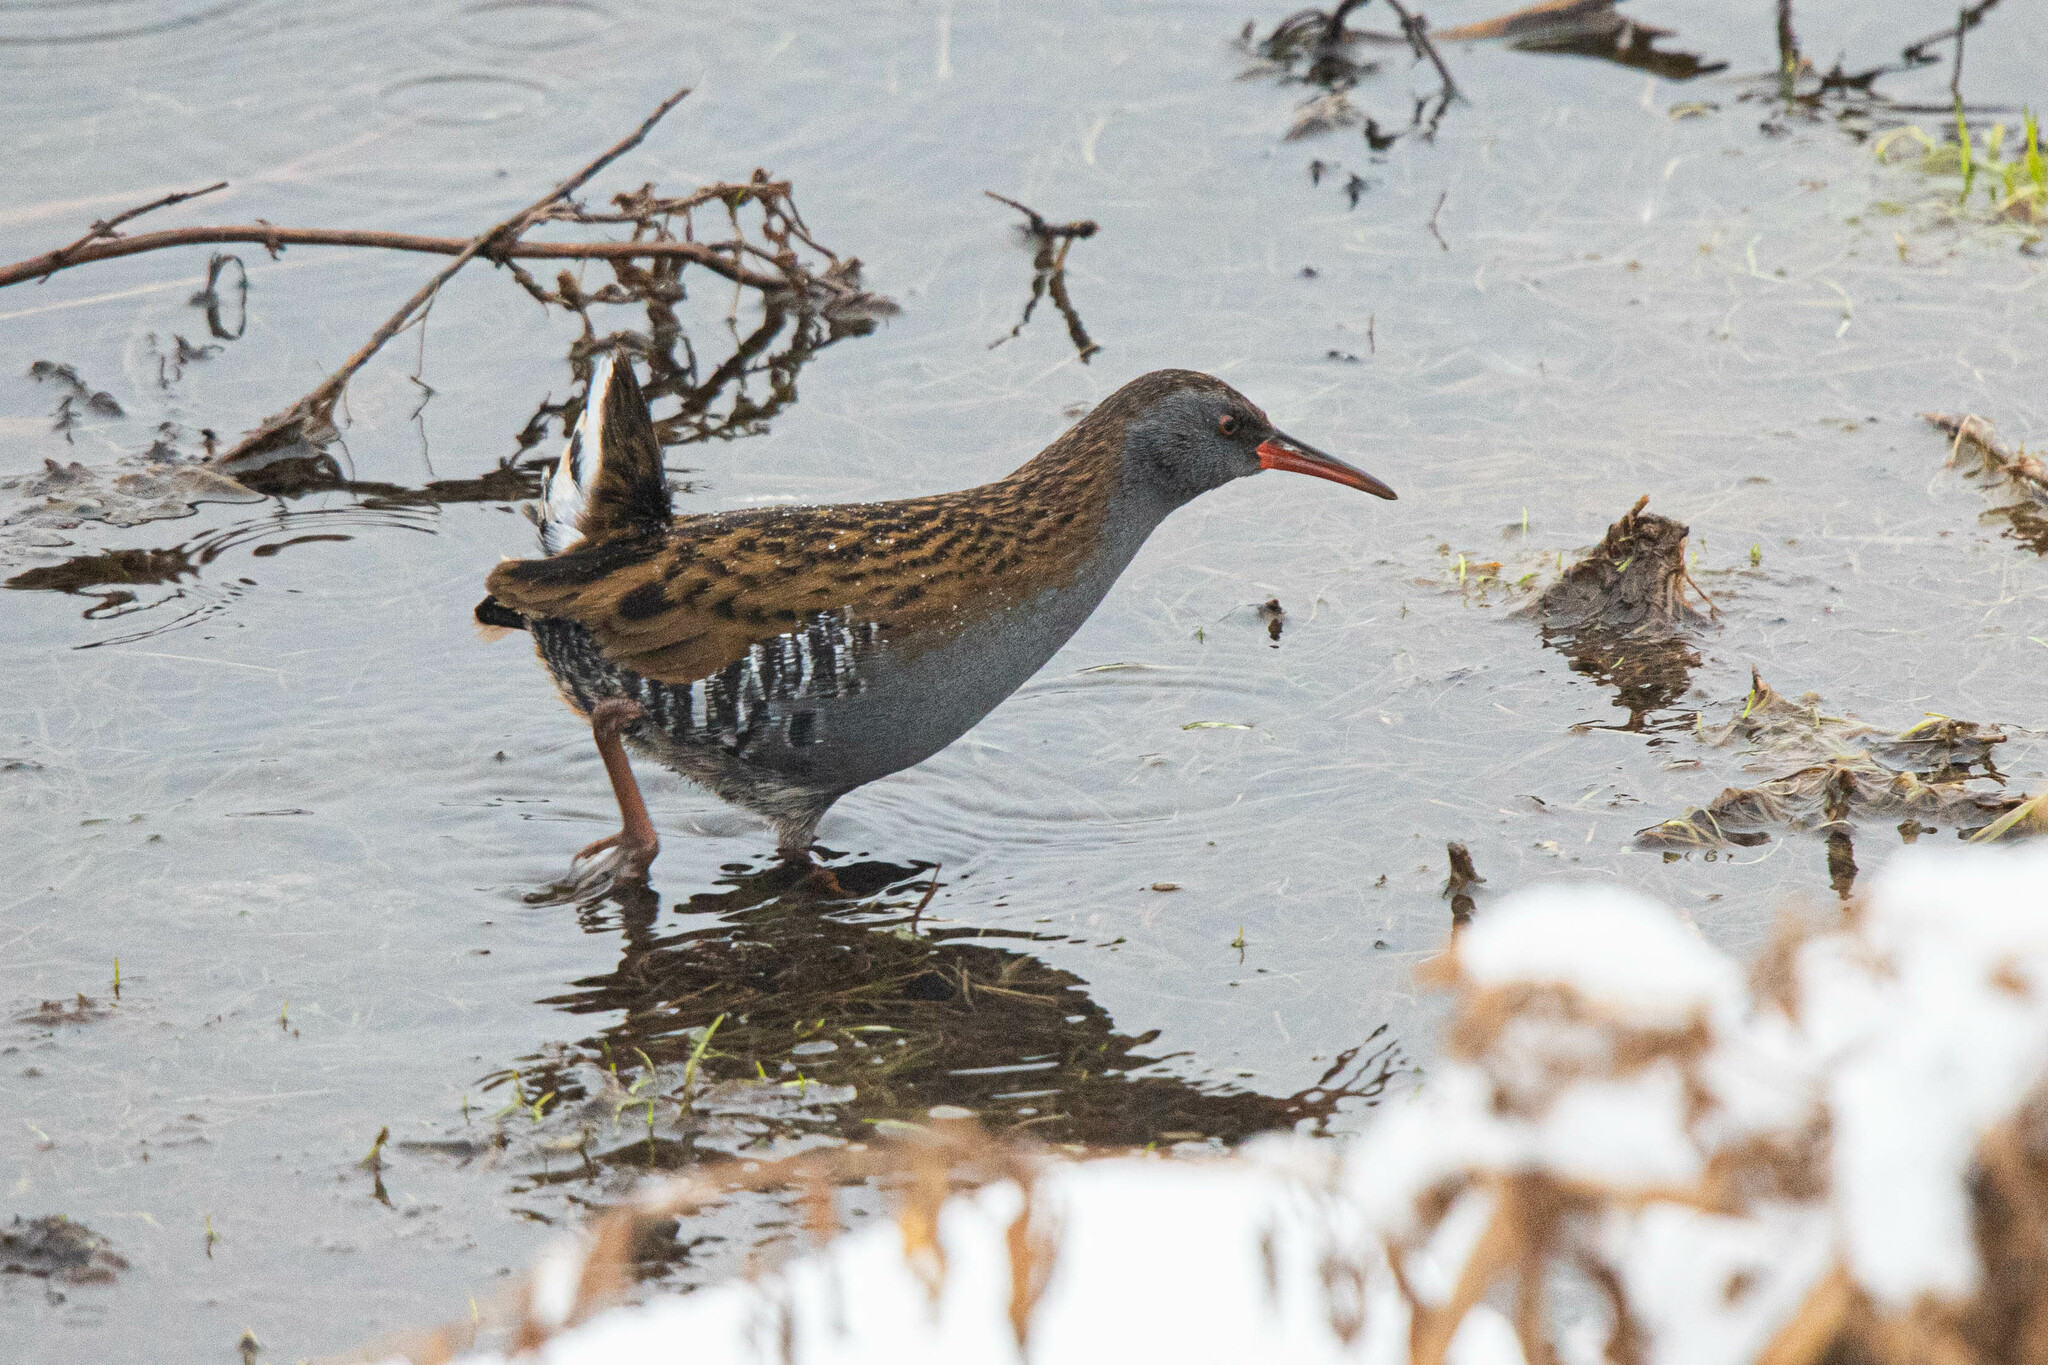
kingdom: Animalia
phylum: Chordata
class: Aves
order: Gruiformes
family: Rallidae
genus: Rallus
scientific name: Rallus aquaticus
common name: Water rail
